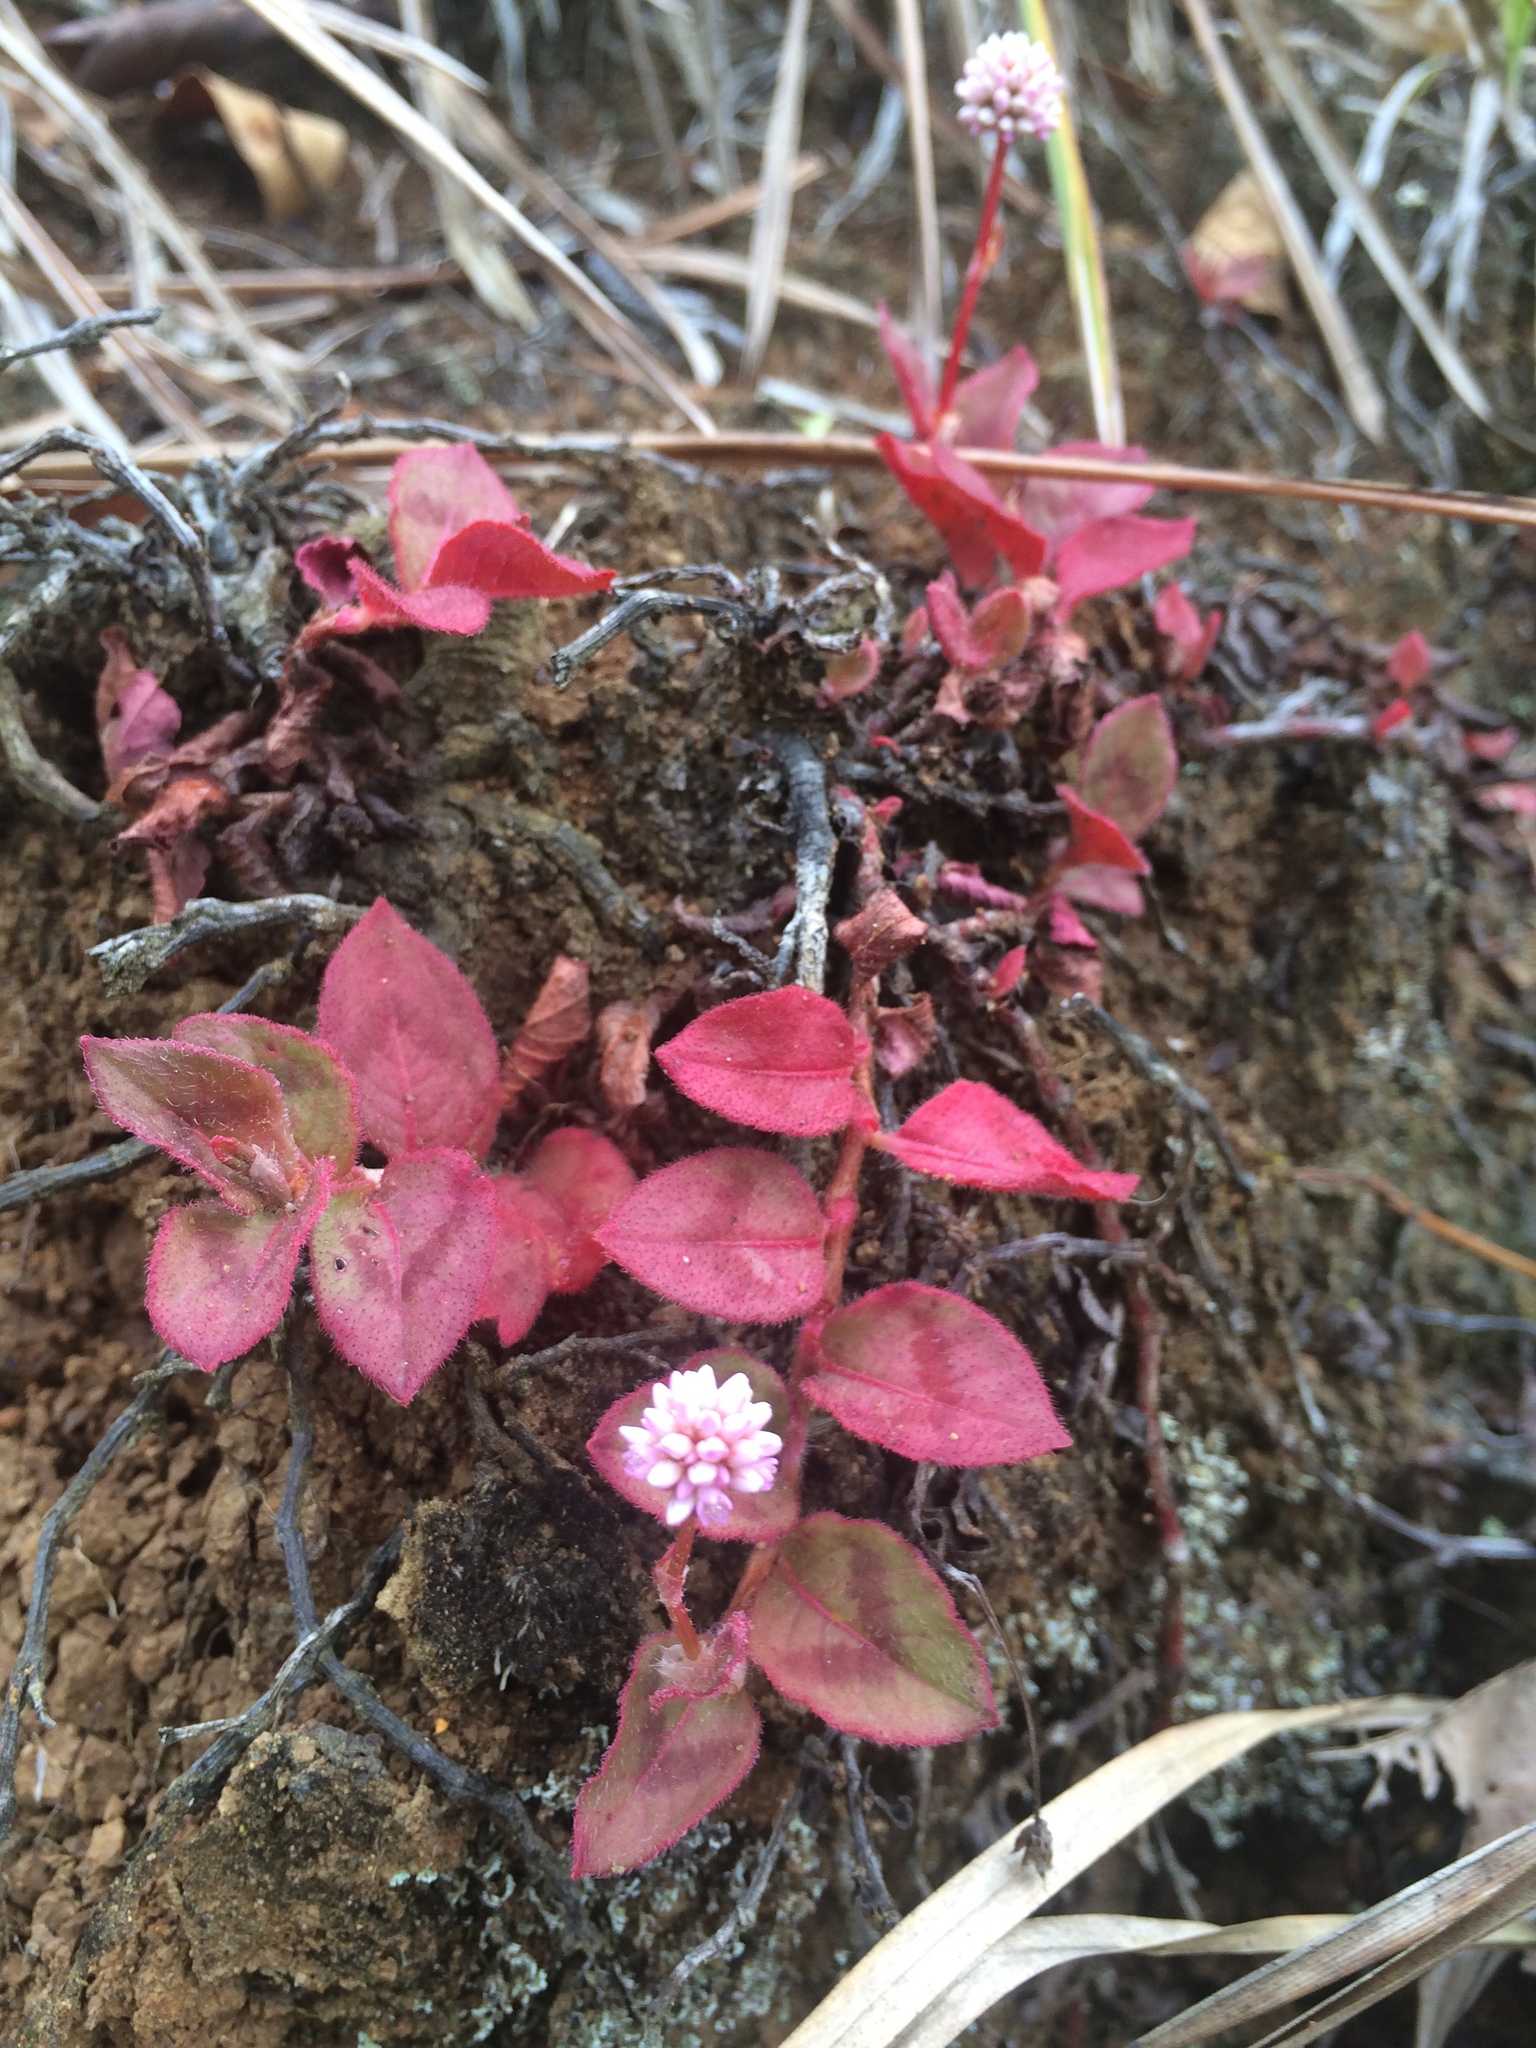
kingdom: Plantae
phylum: Tracheophyta
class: Magnoliopsida
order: Caryophyllales
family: Polygonaceae
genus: Persicaria
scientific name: Persicaria capitata
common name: Pinkhead smartweed
